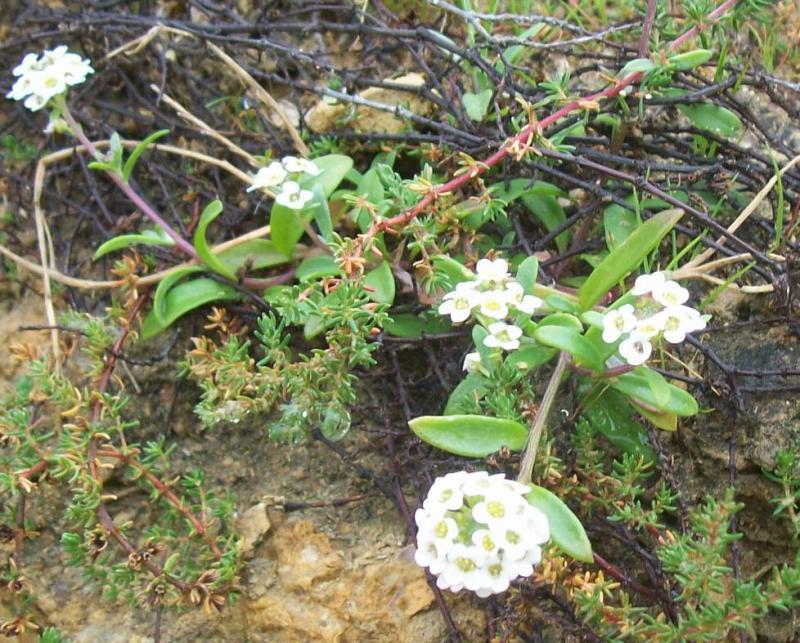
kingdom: Plantae
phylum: Tracheophyta
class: Magnoliopsida
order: Brassicales
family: Brassicaceae
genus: Lobularia
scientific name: Lobularia maritima
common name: Sweet alison
